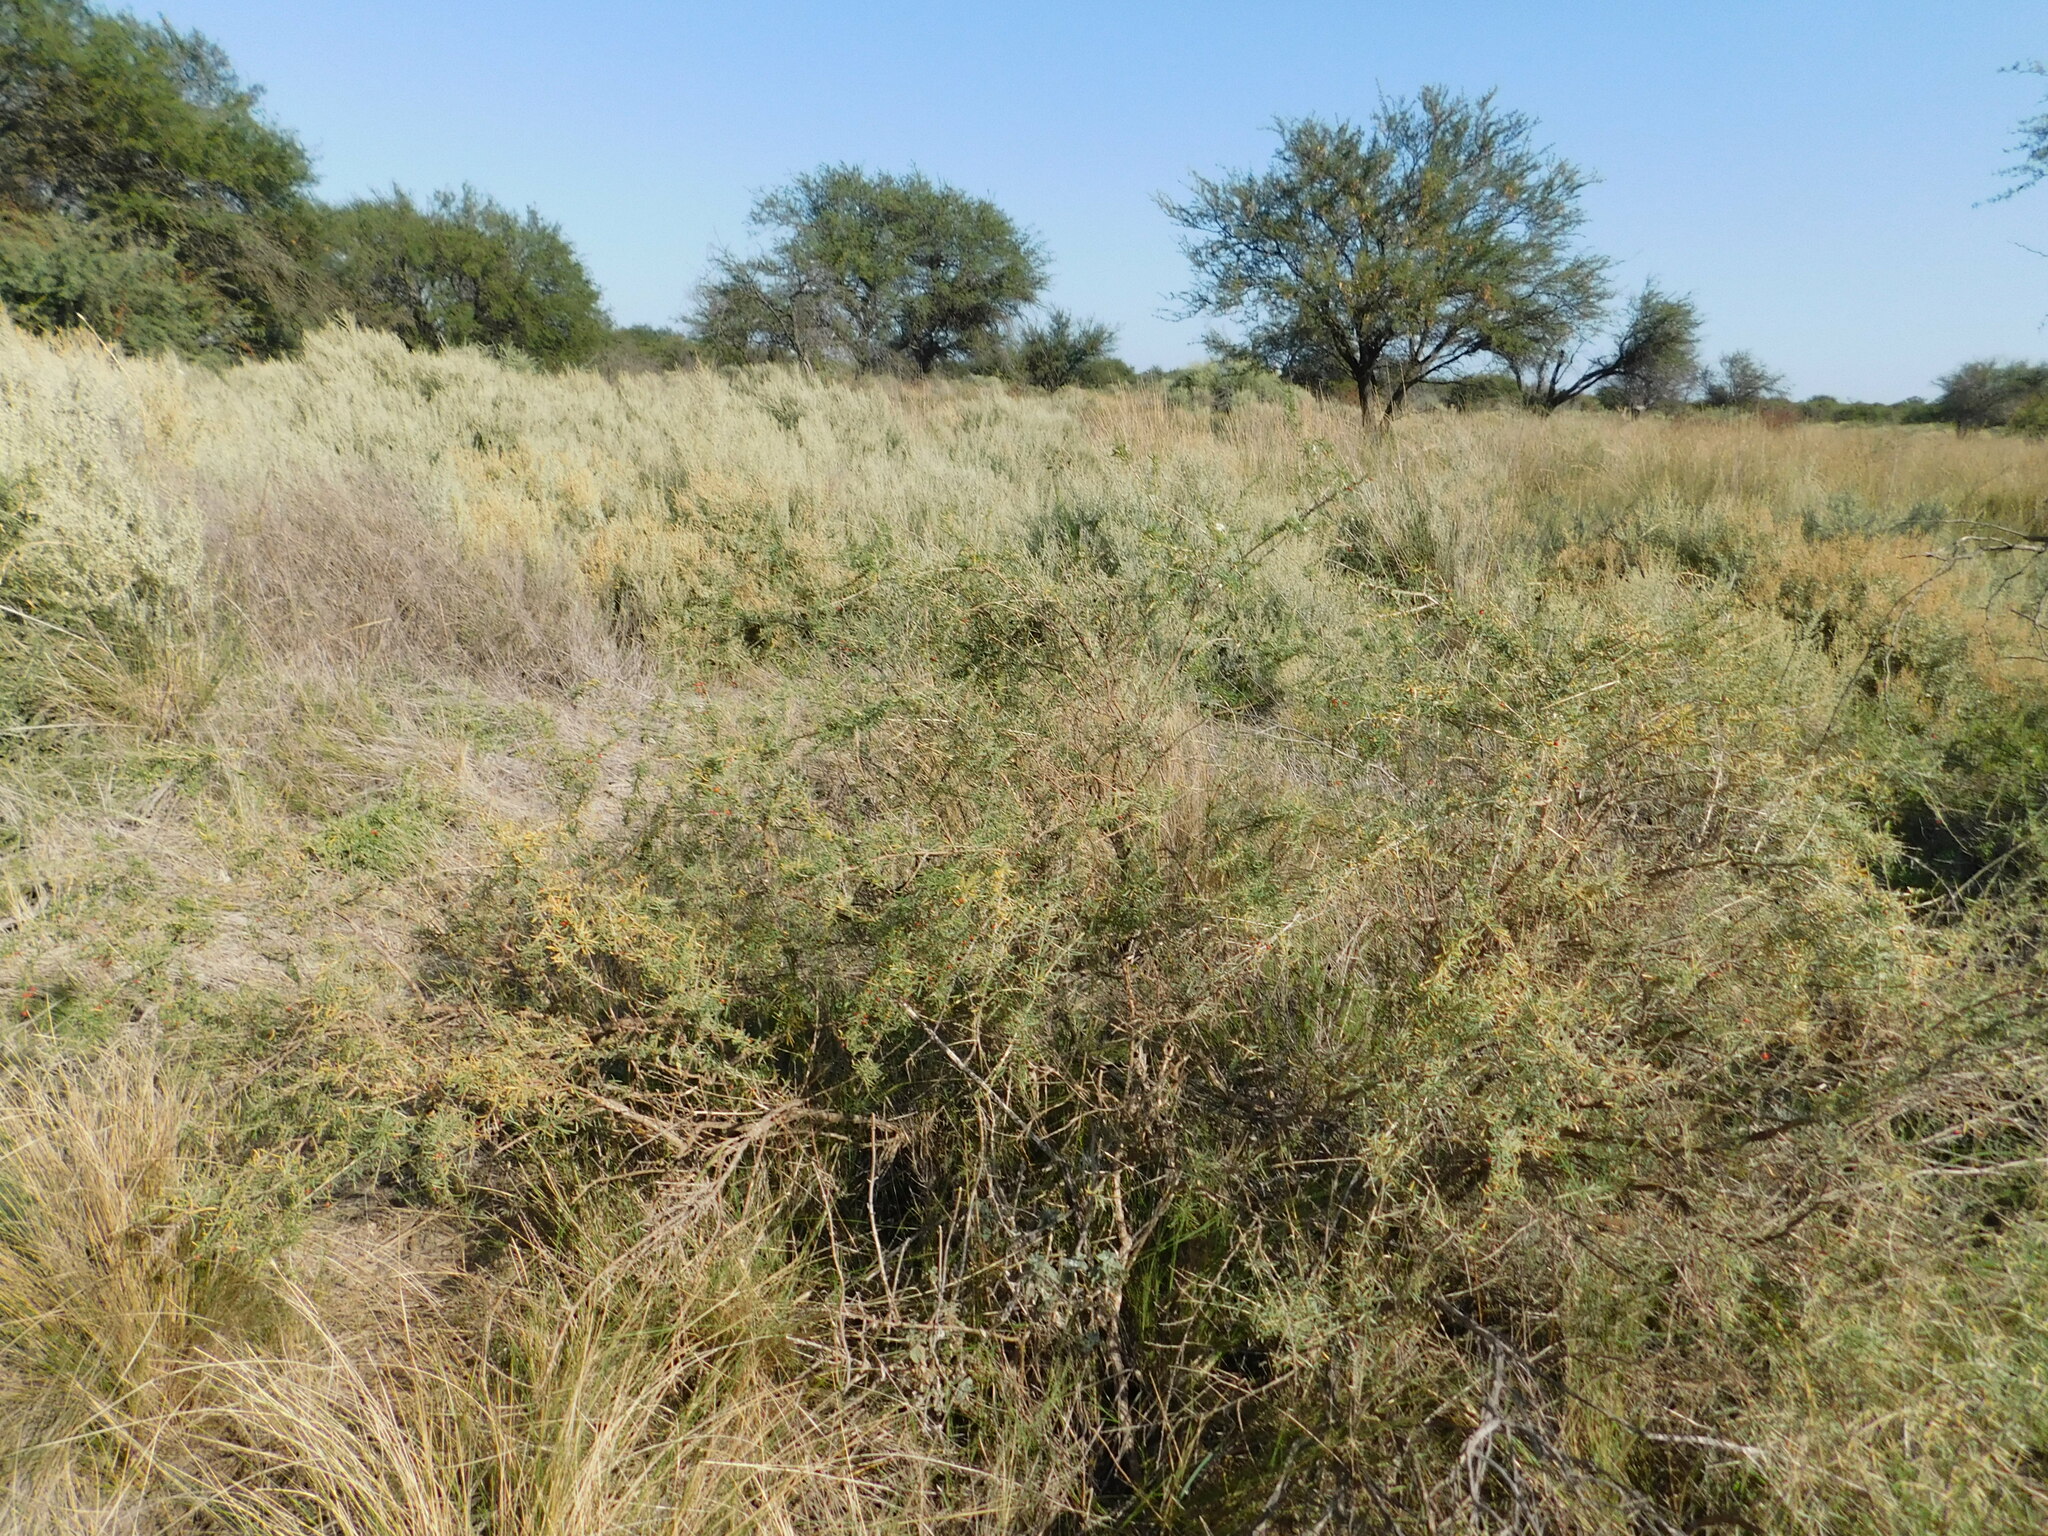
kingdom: Plantae
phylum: Tracheophyta
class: Magnoliopsida
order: Solanales
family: Solanaceae
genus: Lycium
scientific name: Lycium chilense
